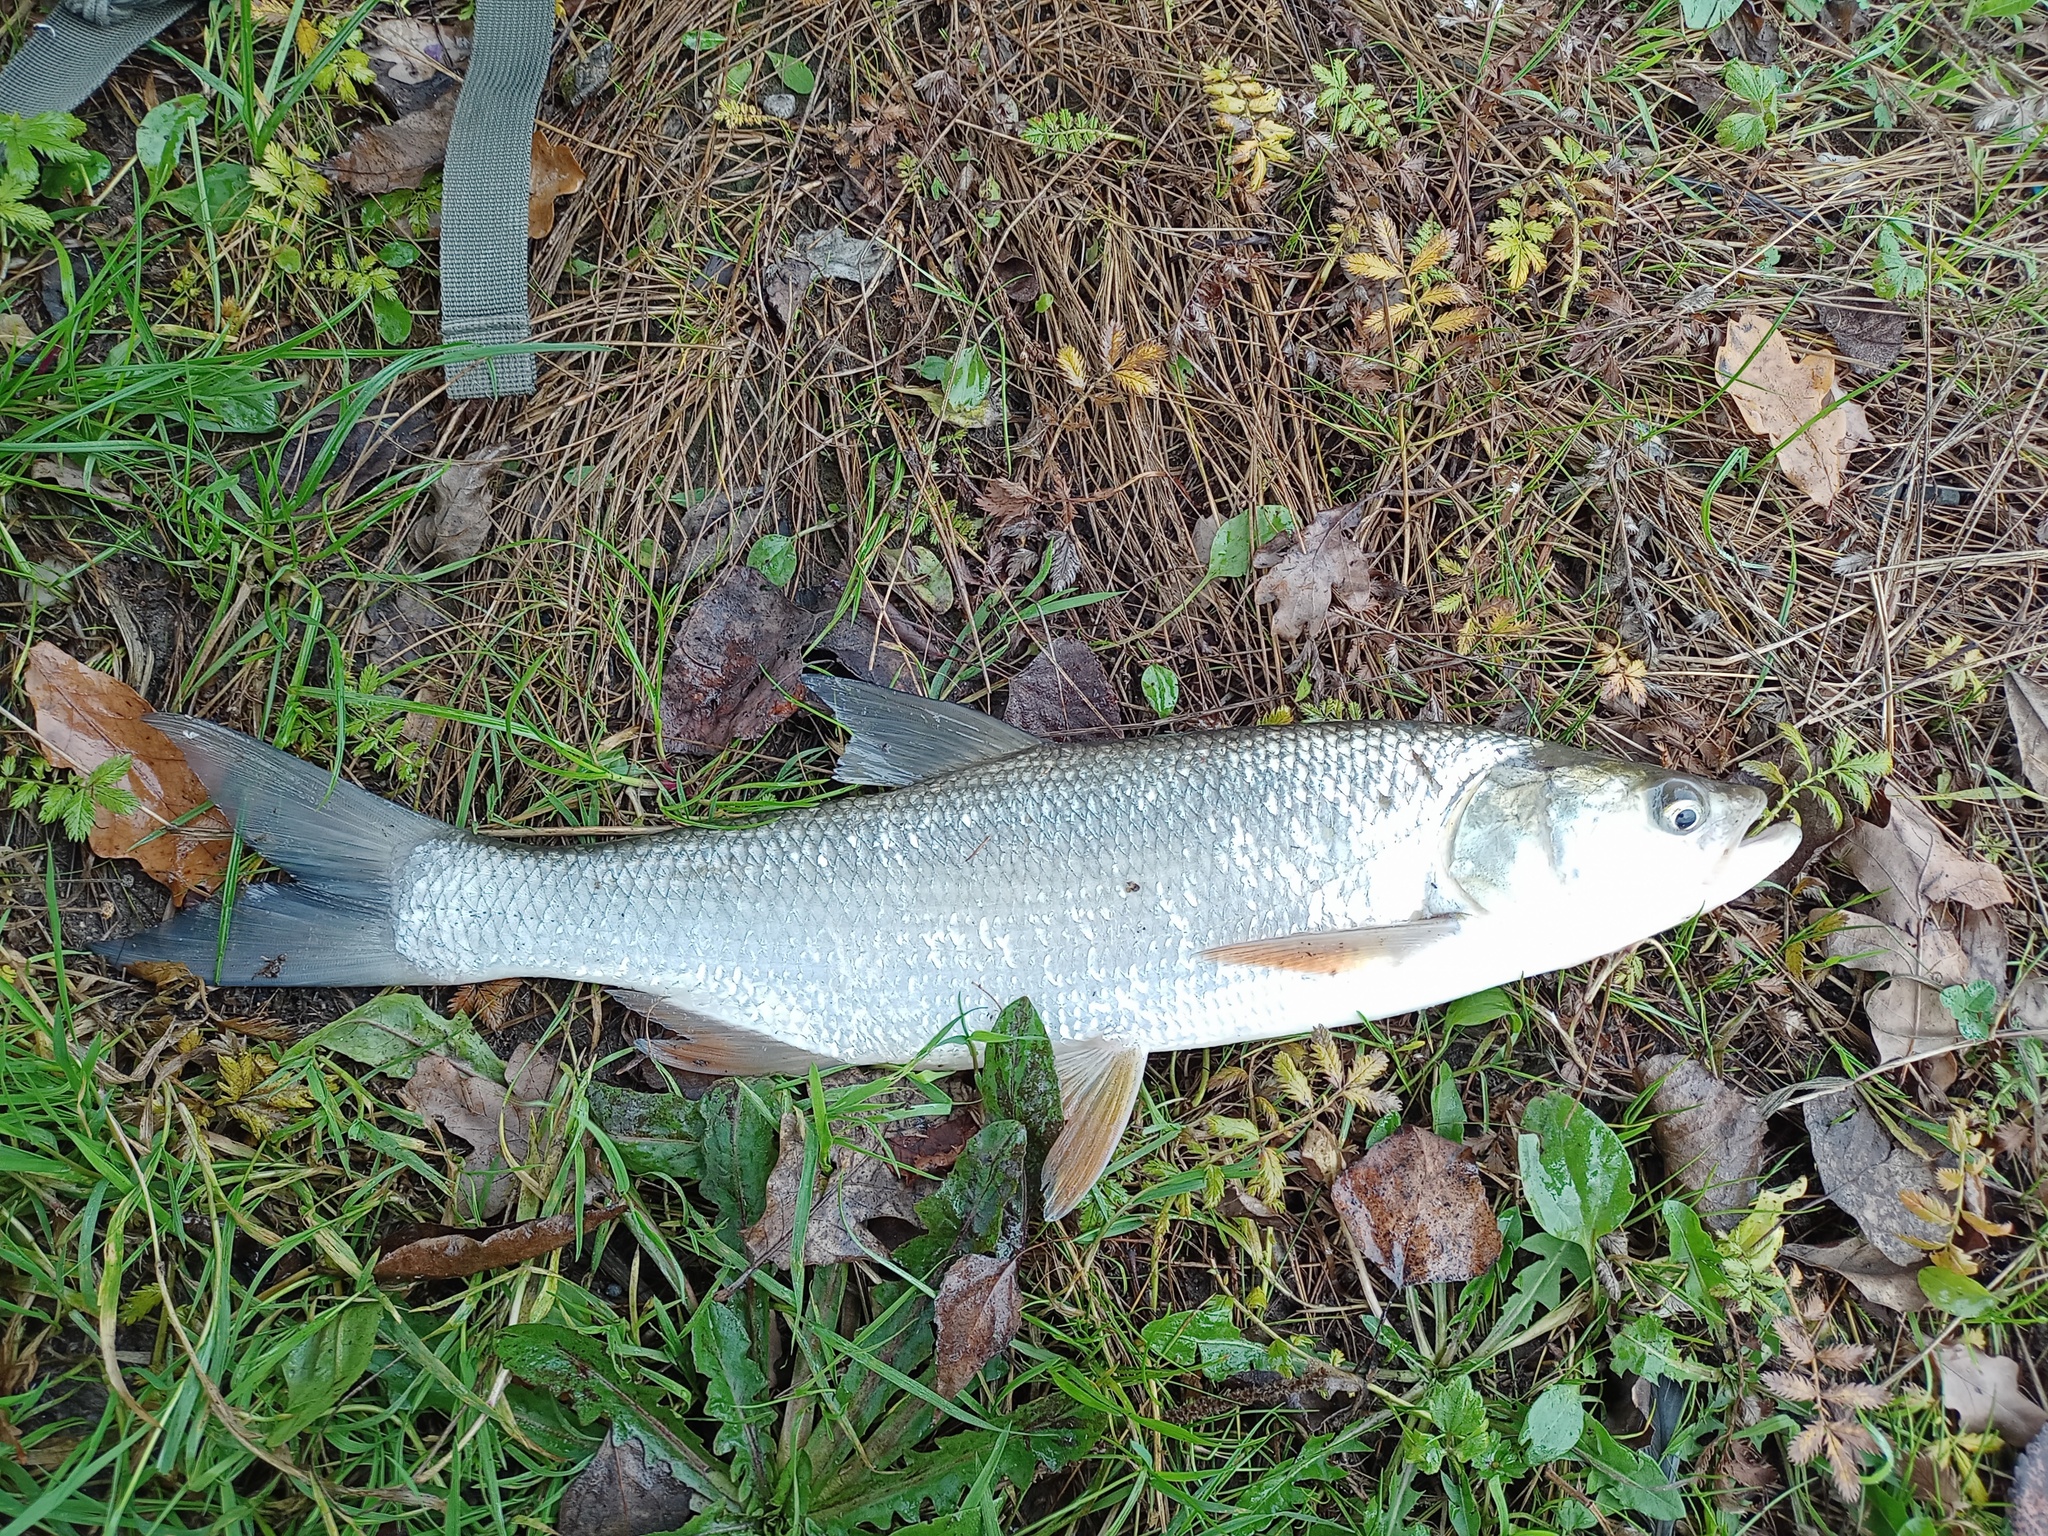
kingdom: Animalia
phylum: Chordata
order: Cypriniformes
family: Cyprinidae
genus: Leuciscus
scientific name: Leuciscus aspius
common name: Asp
